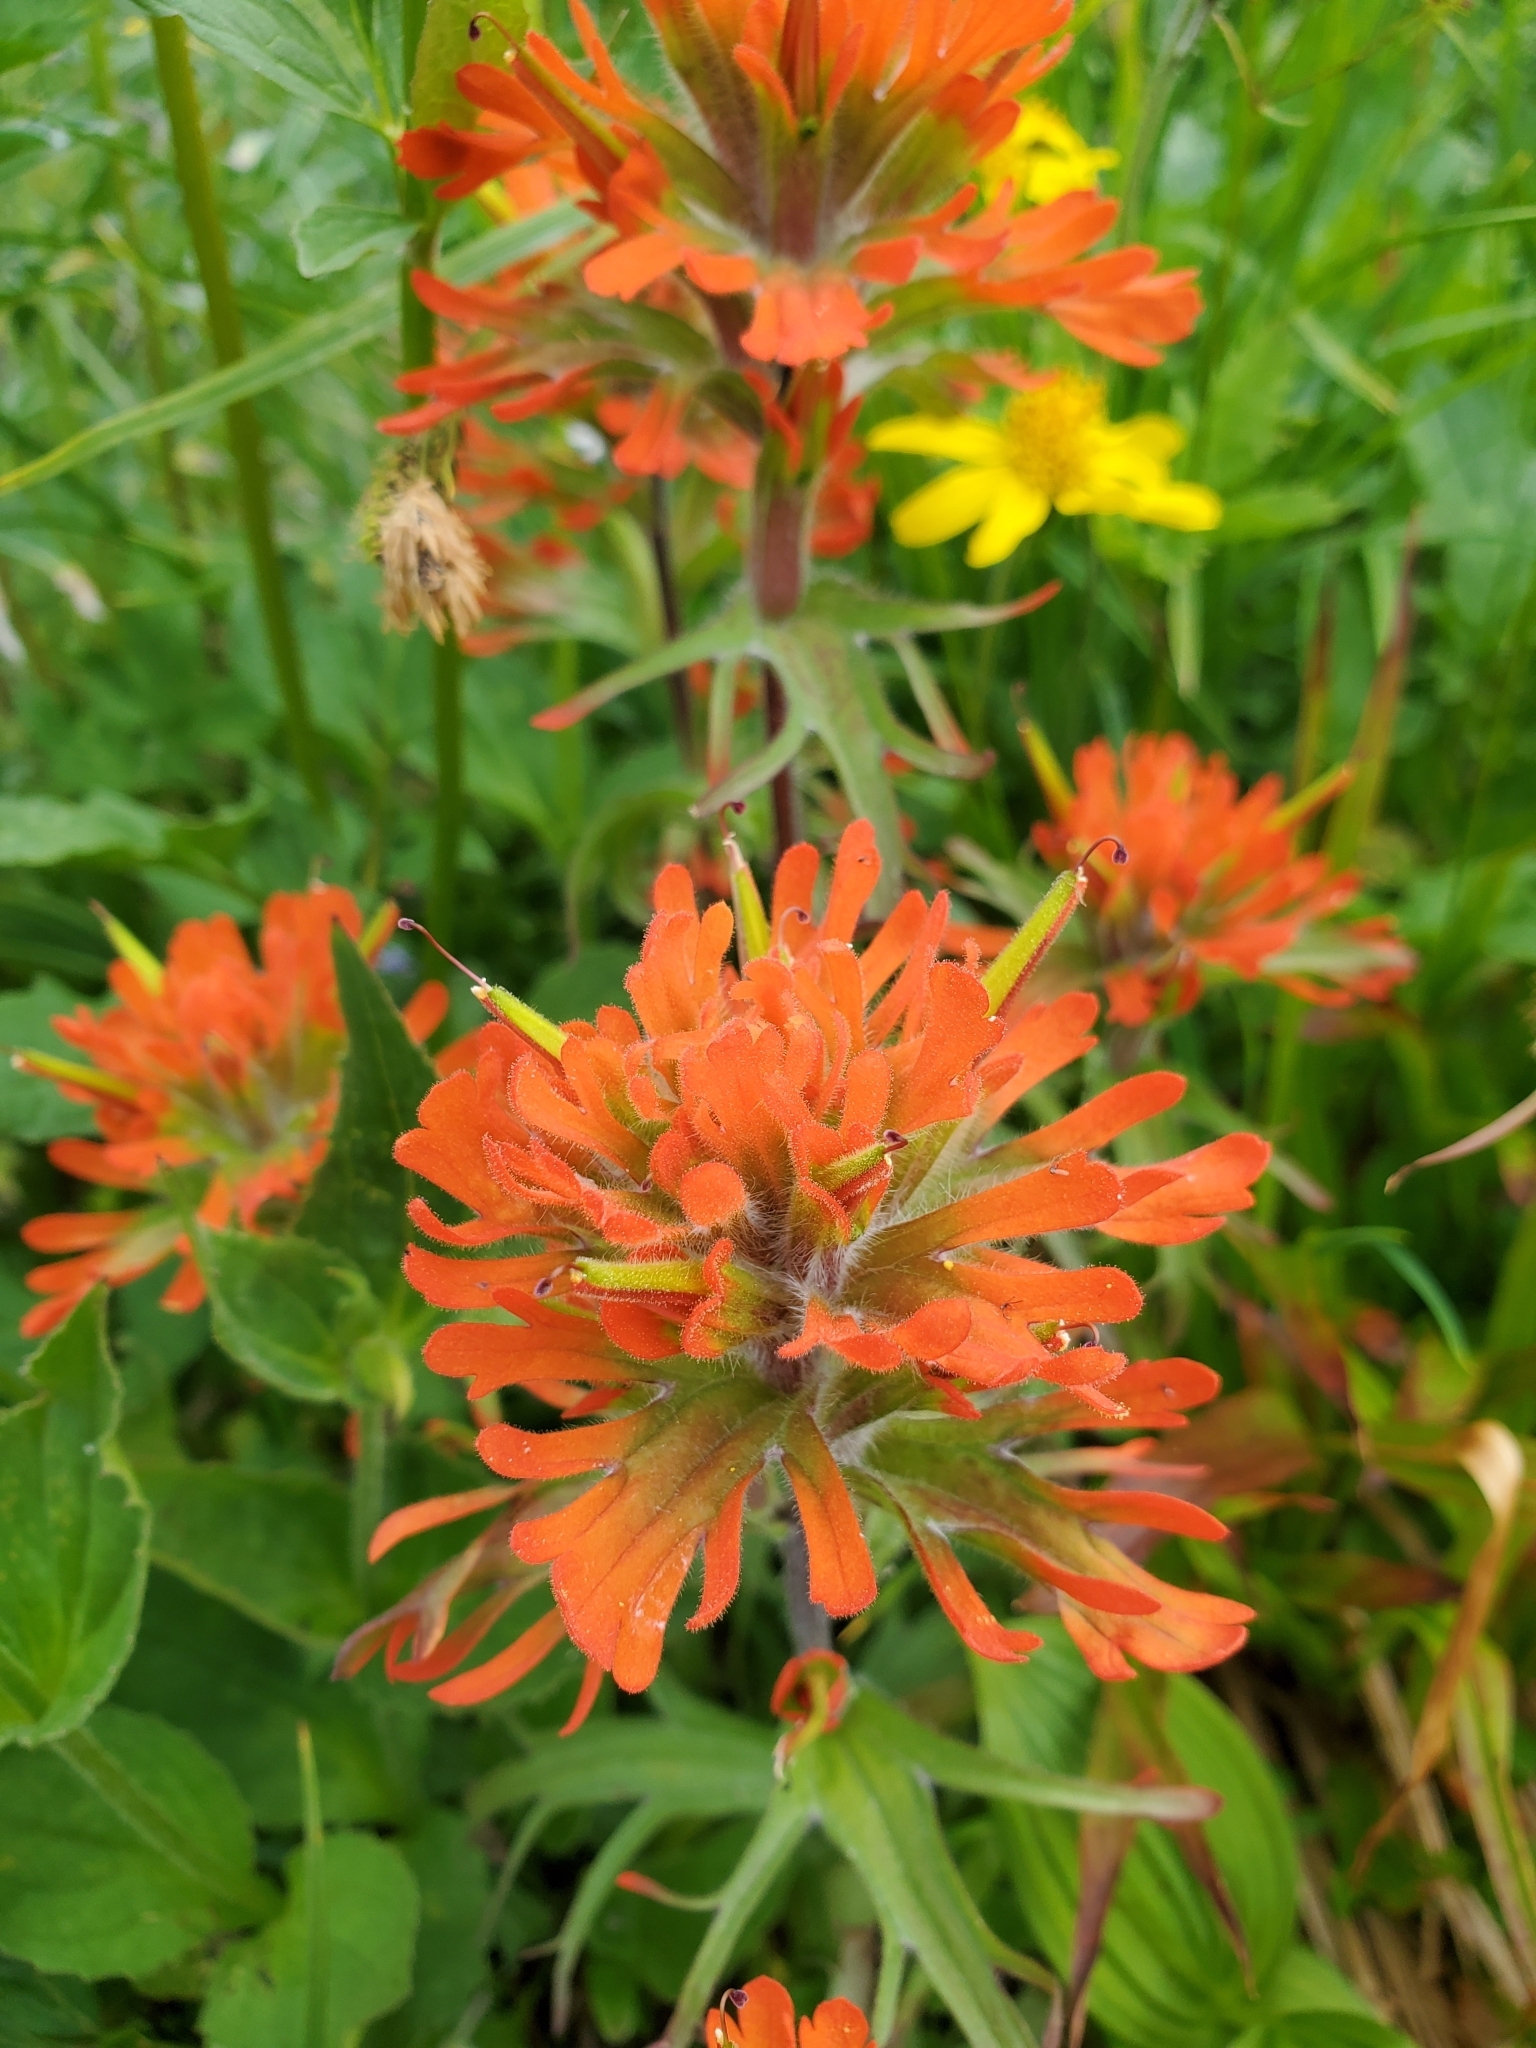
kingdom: Plantae
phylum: Tracheophyta
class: Magnoliopsida
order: Lamiales
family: Orobanchaceae
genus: Castilleja
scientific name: Castilleja hispida
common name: Bristly paintbrush
